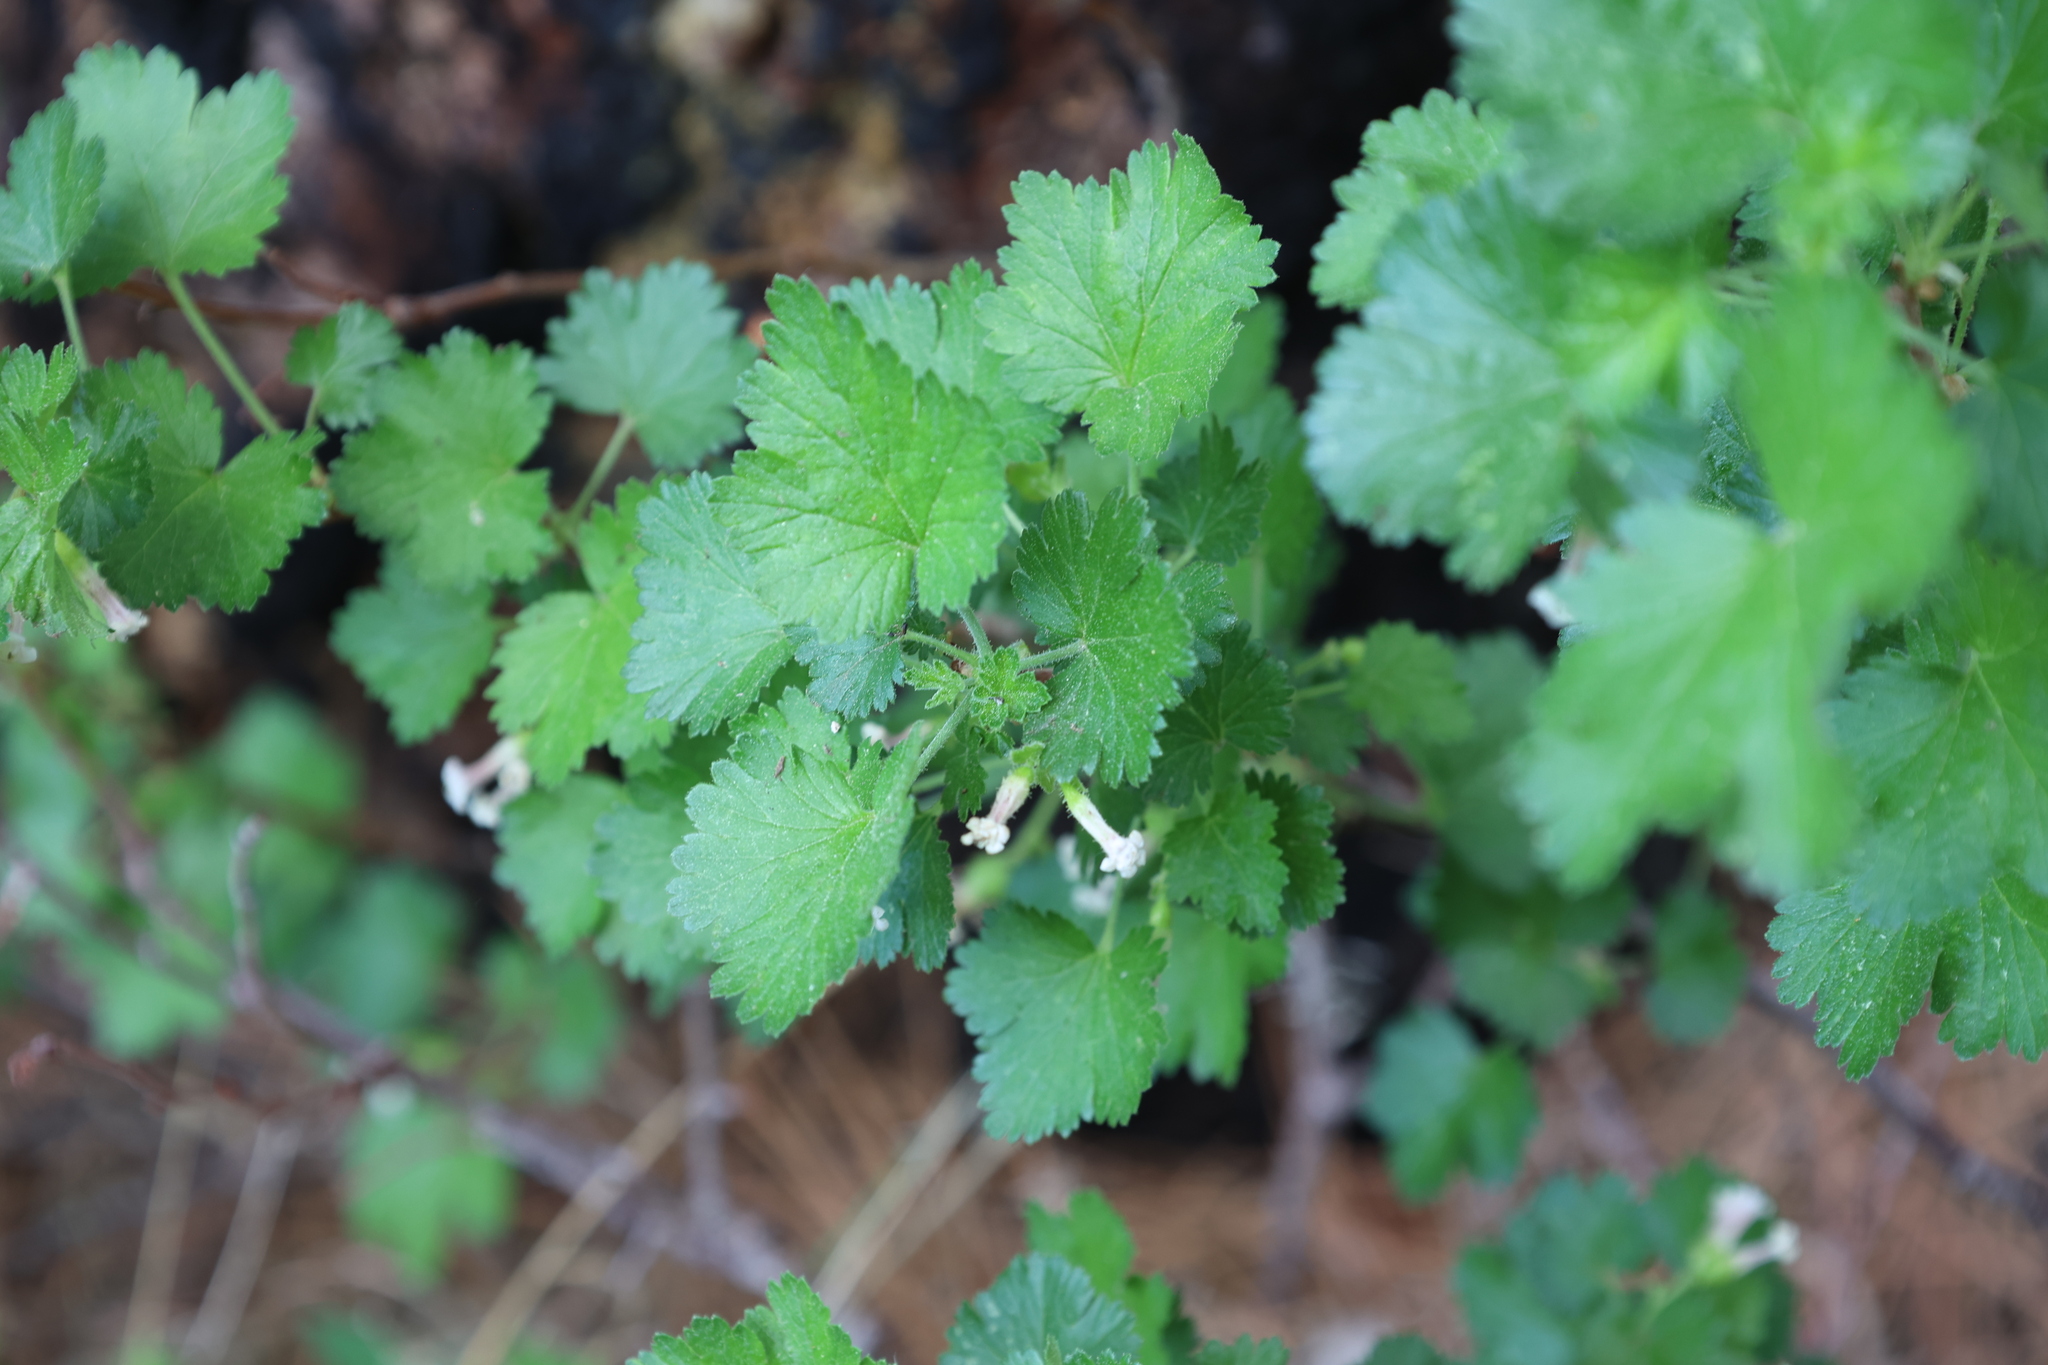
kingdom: Plantae
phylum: Tracheophyta
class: Magnoliopsida
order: Saxifragales
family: Grossulariaceae
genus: Ribes
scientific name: Ribes cereum
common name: Wax currant
